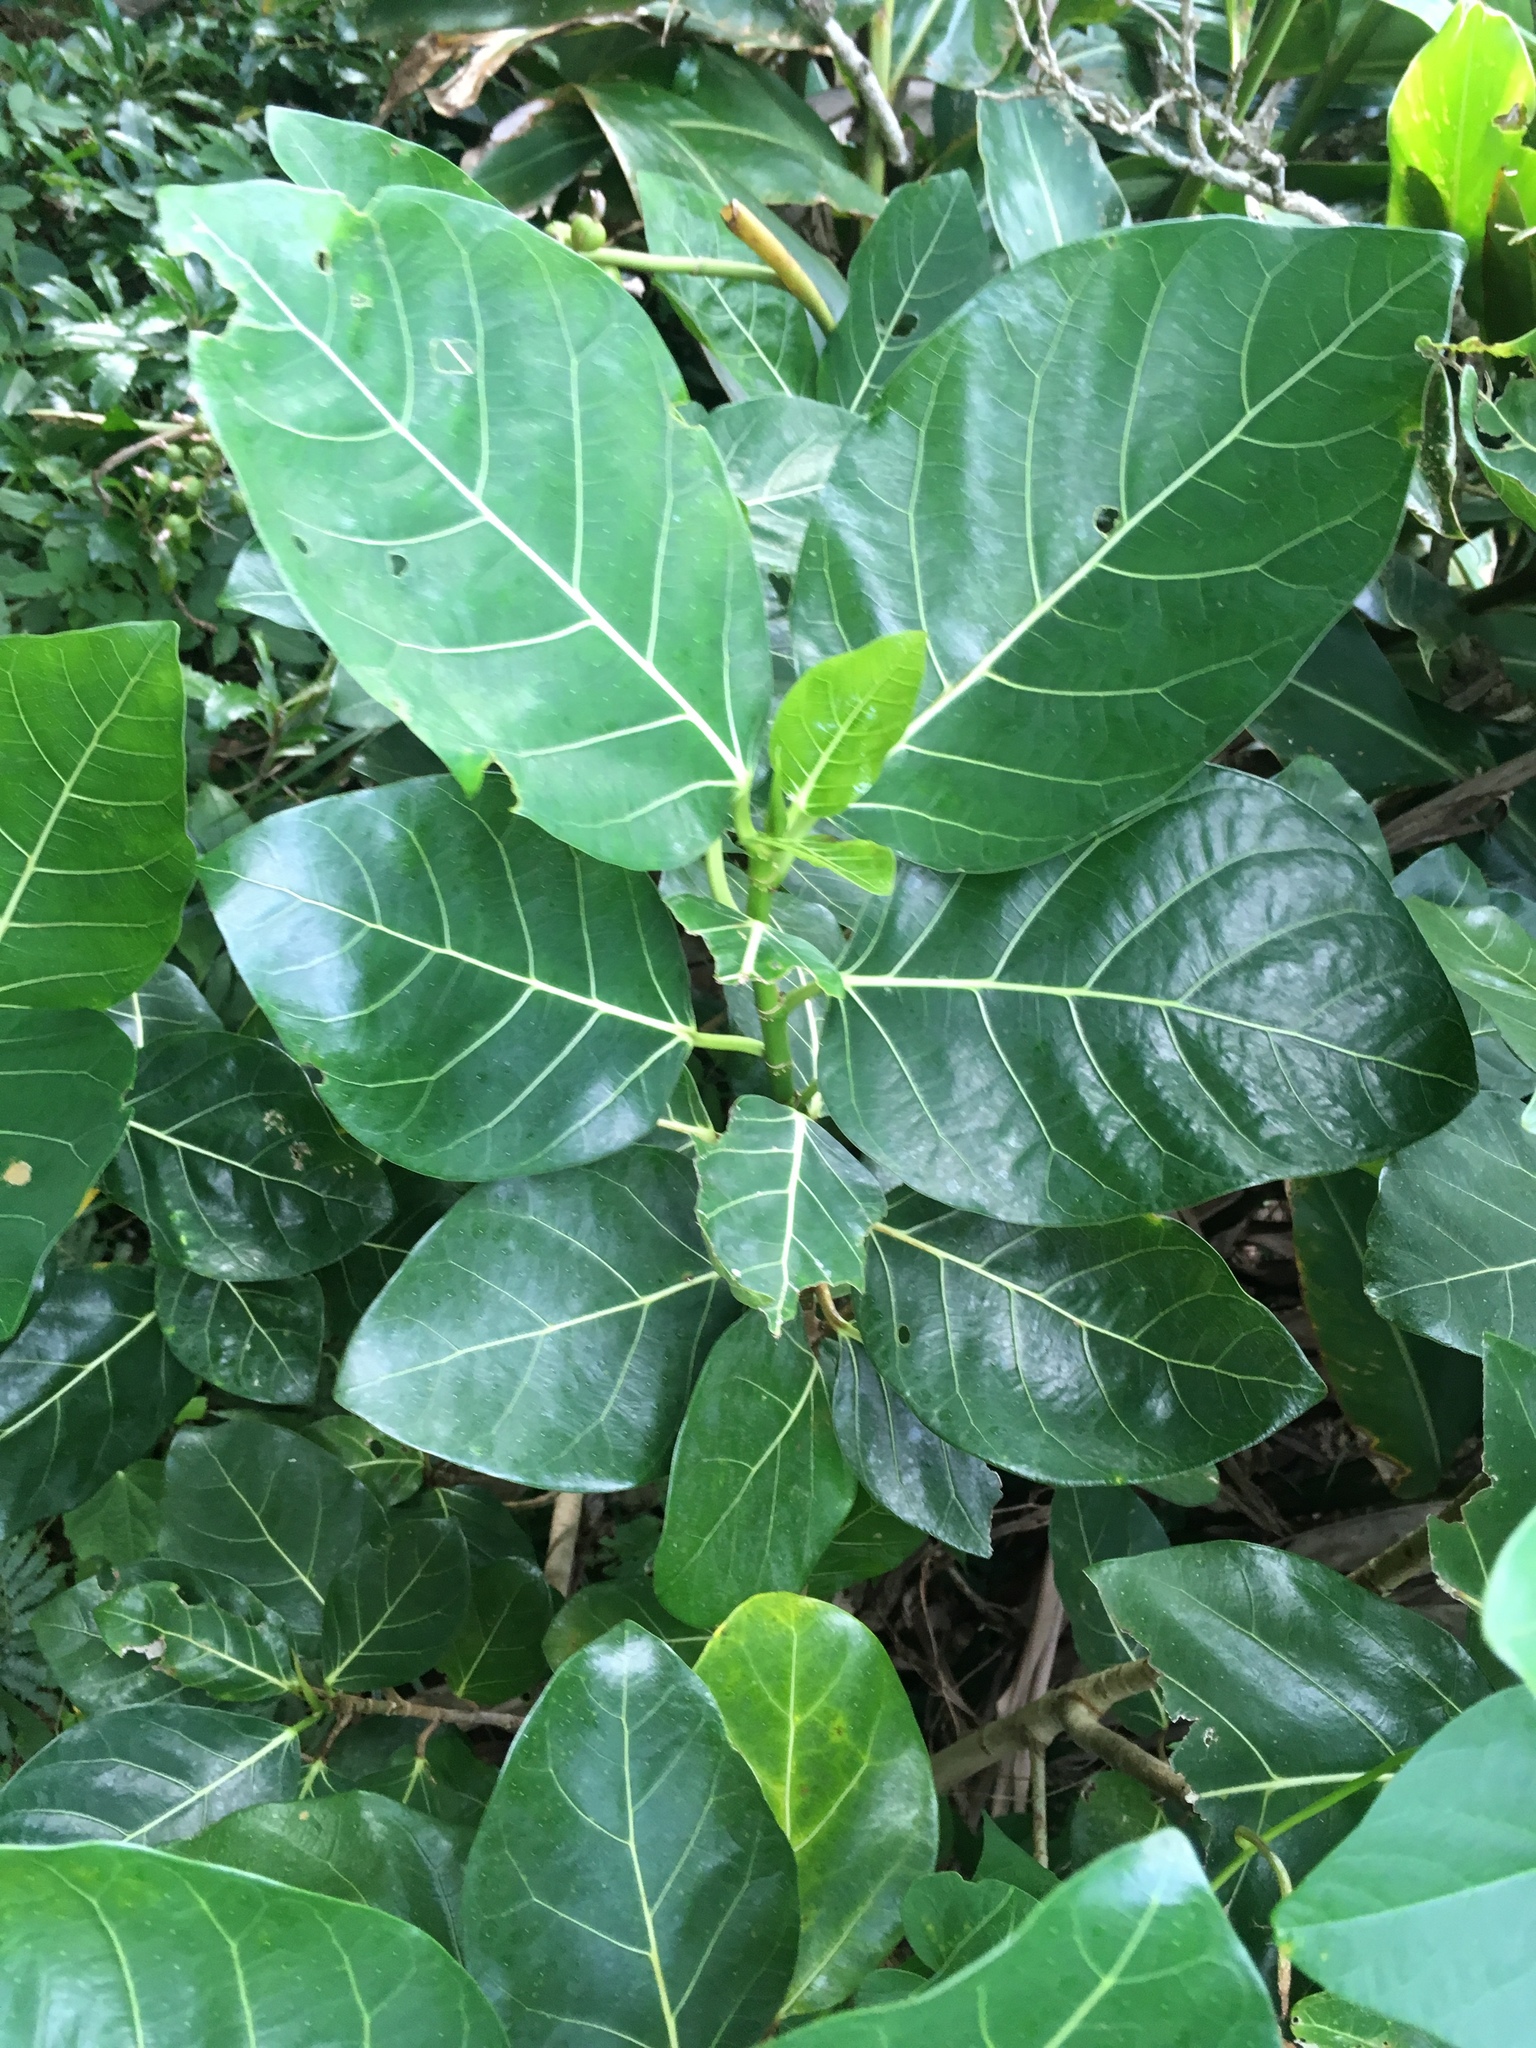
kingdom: Plantae
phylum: Tracheophyta
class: Magnoliopsida
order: Rosales
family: Moraceae
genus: Ficus
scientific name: Ficus septica
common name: Septic fig
